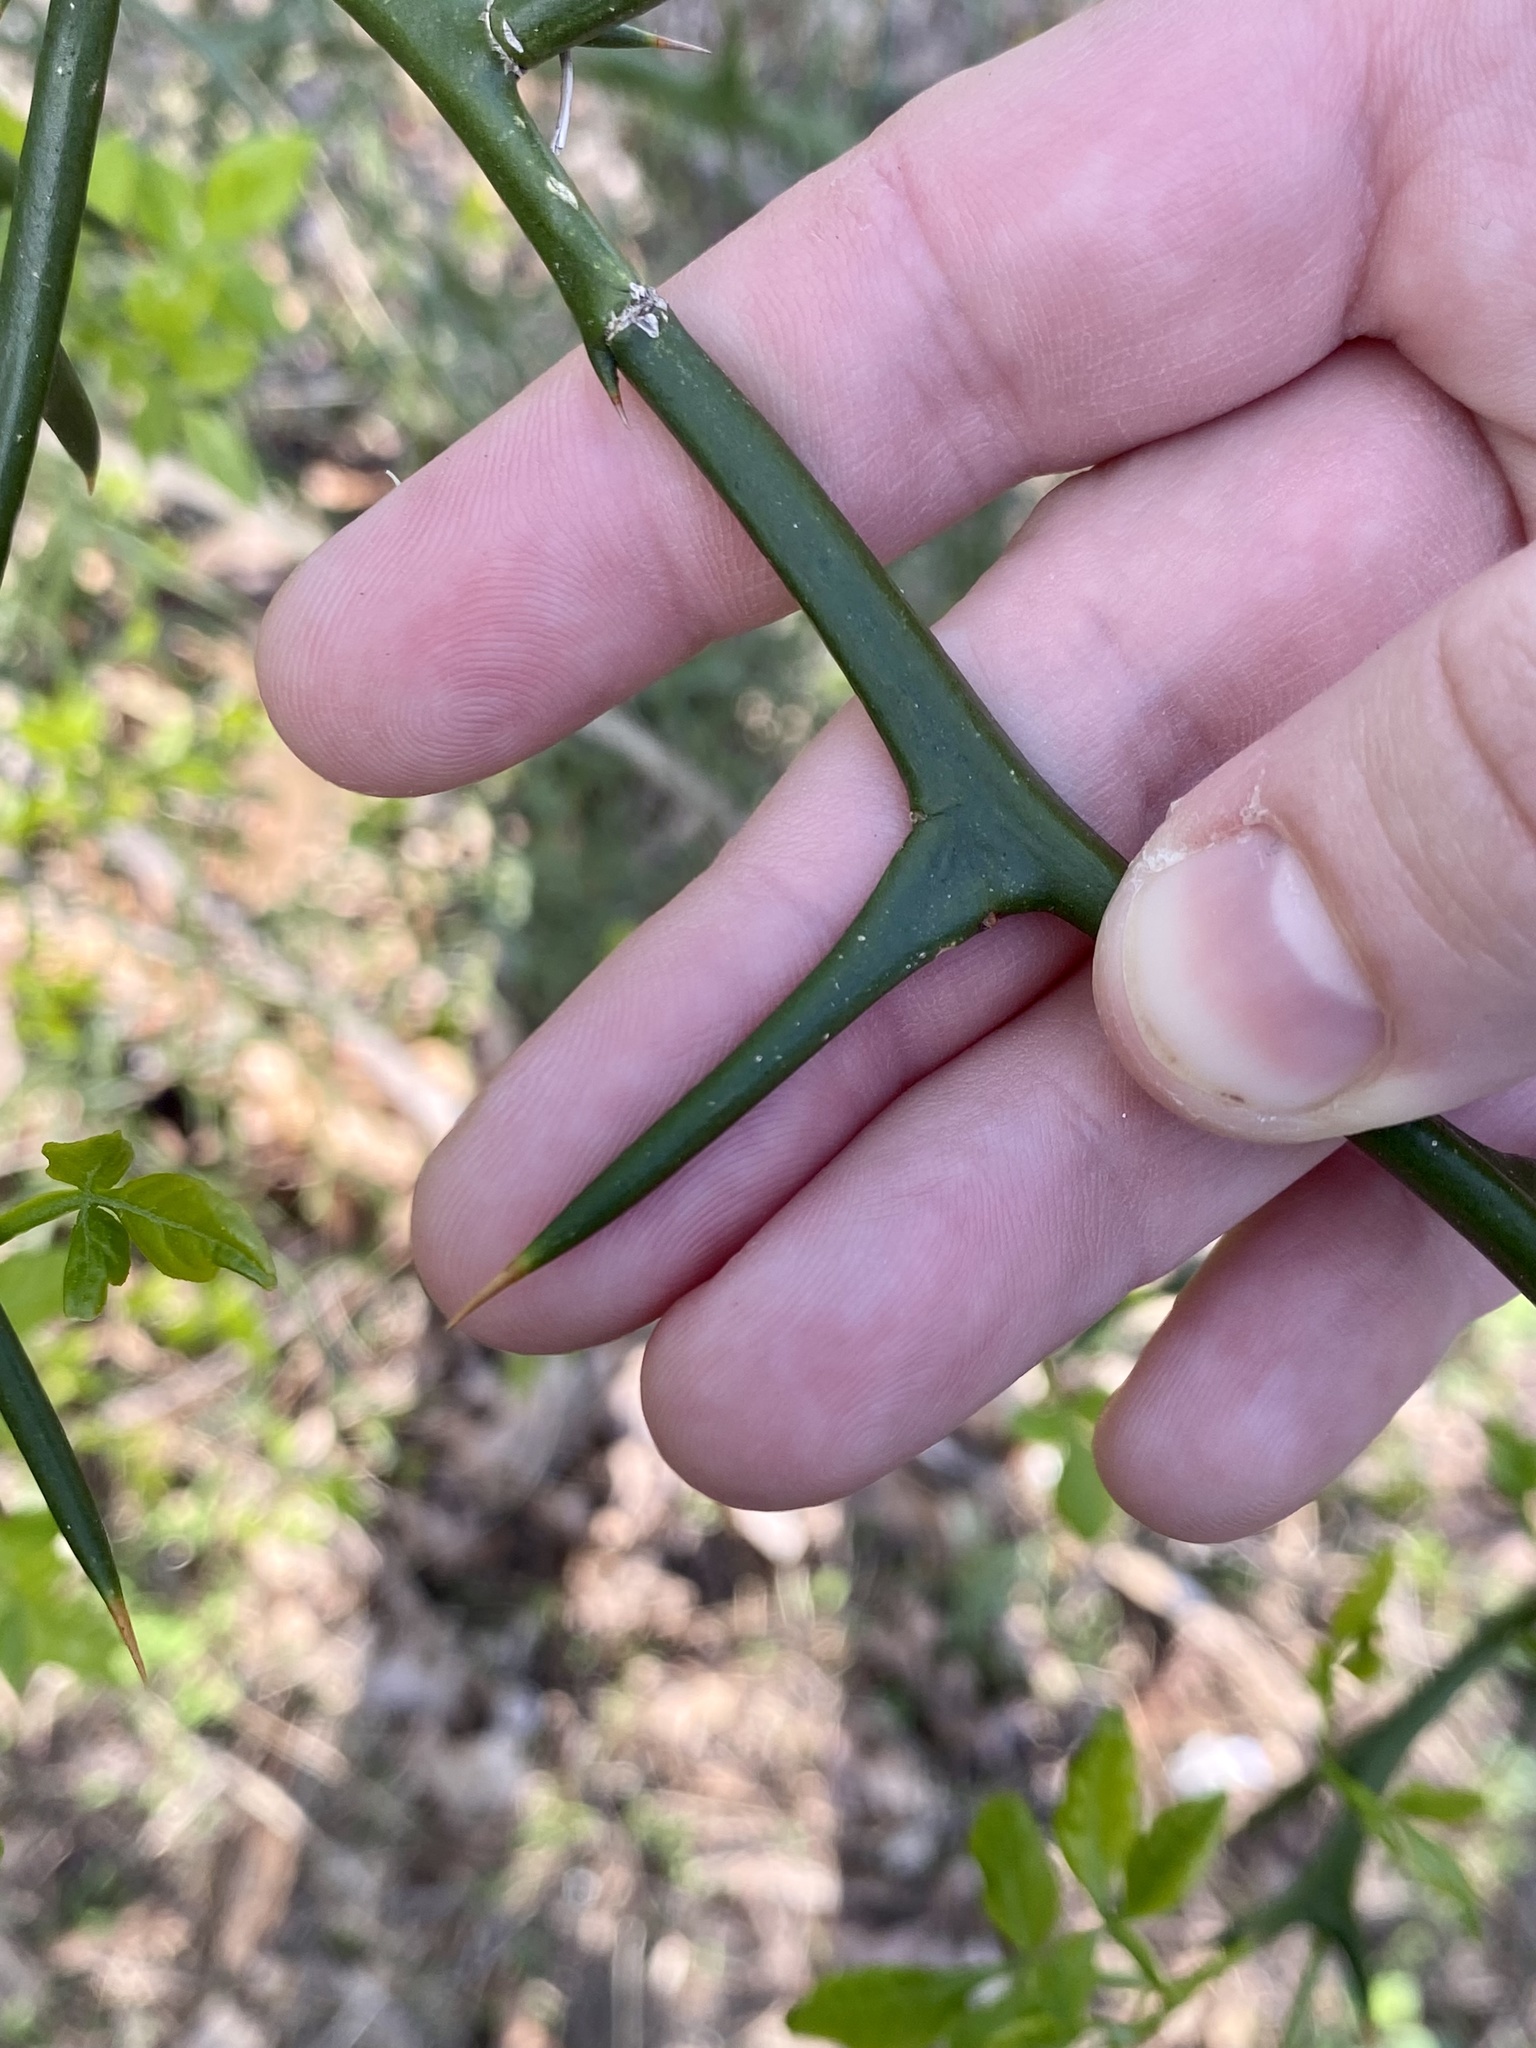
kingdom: Plantae
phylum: Tracheophyta
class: Magnoliopsida
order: Sapindales
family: Rutaceae
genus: Citrus
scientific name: Citrus trifoliata
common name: Japanese bitter-orange
